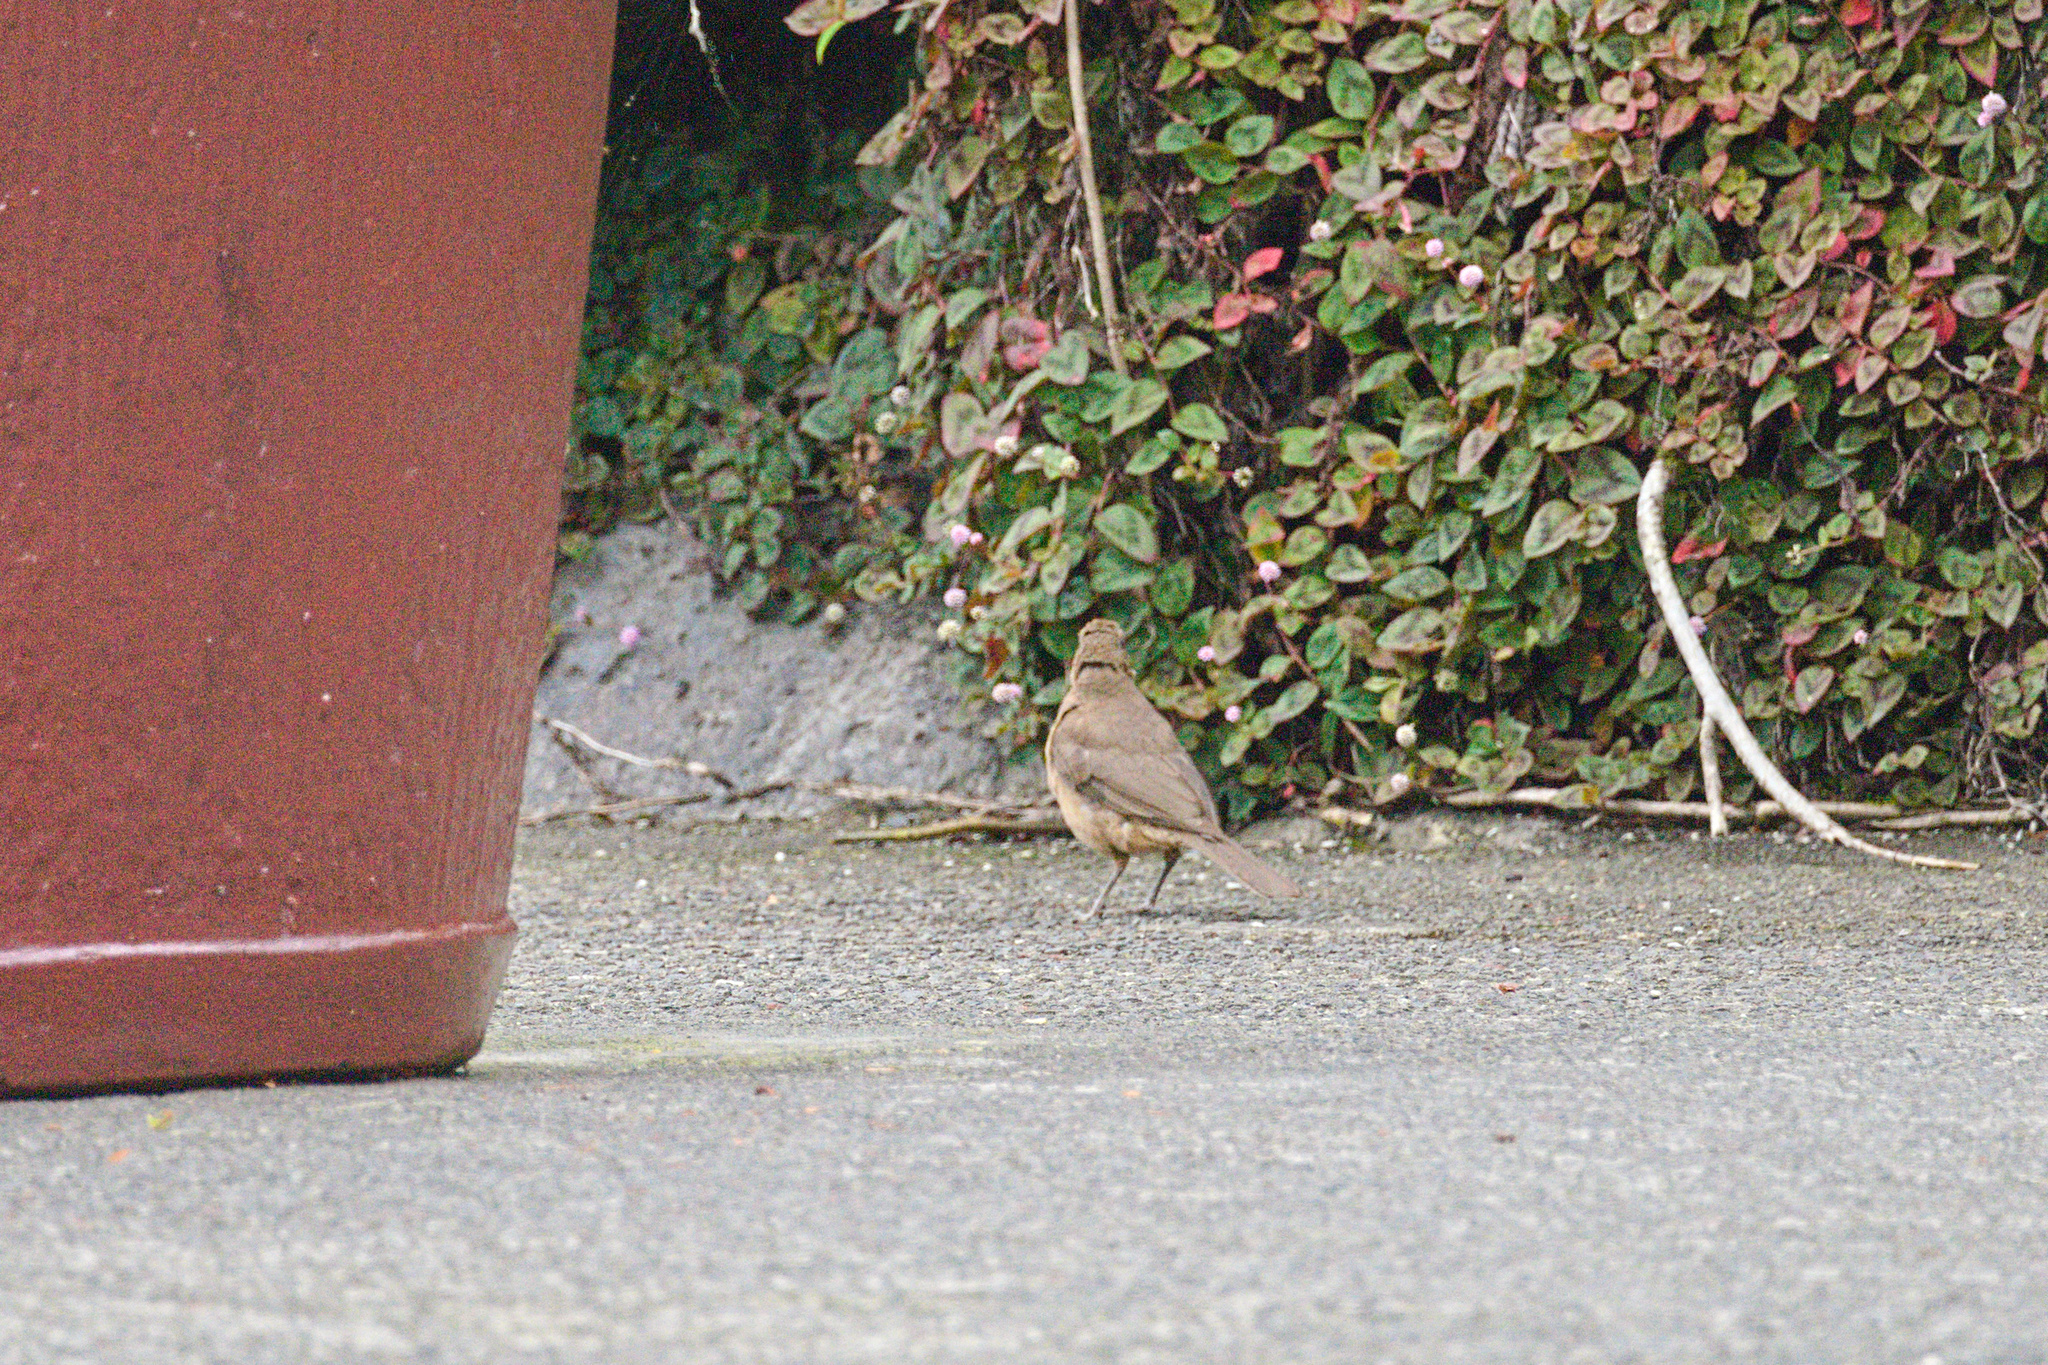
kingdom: Animalia
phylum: Chordata
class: Aves
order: Passeriformes
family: Turdidae
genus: Turdus
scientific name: Turdus grayi
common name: Clay-colored thrush
